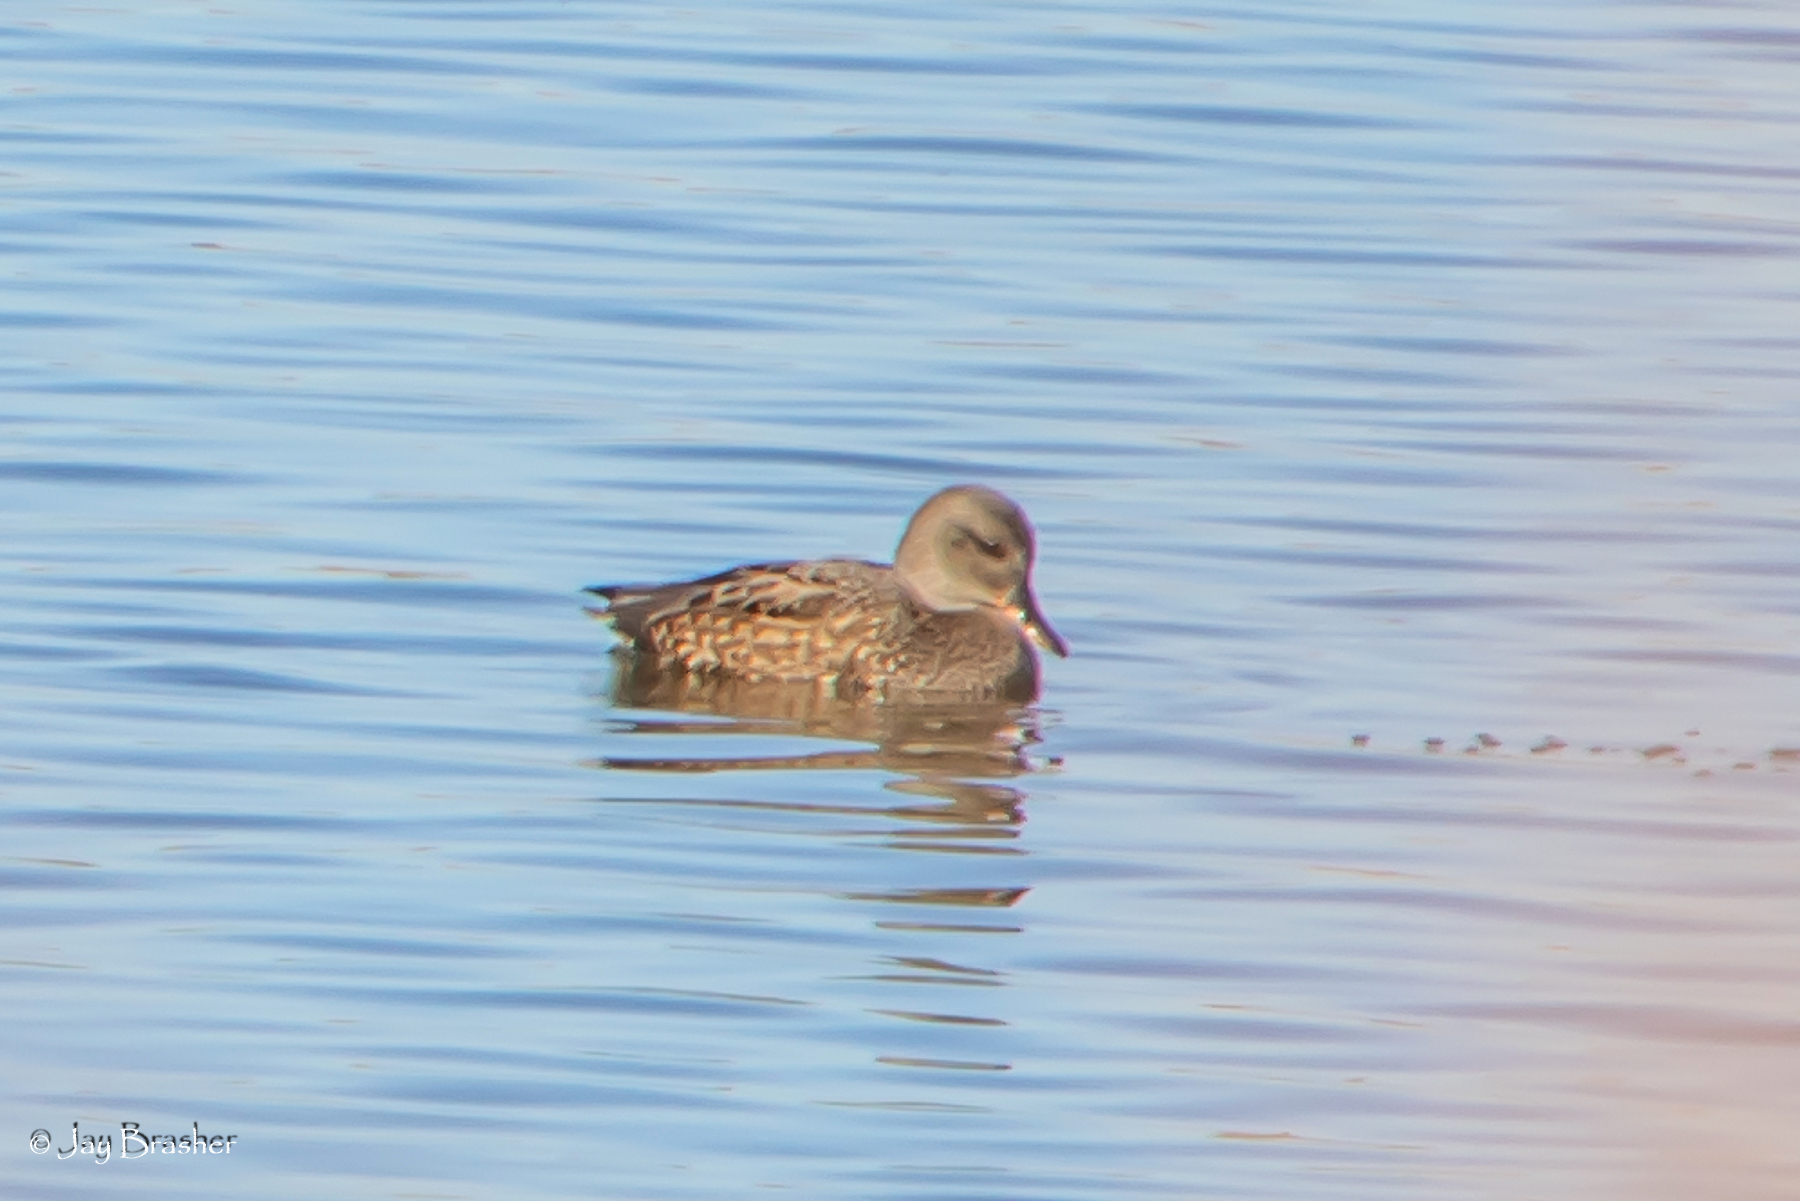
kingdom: Animalia
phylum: Chordata
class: Aves
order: Anseriformes
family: Anatidae
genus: Mareca
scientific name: Mareca strepera
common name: Gadwall
